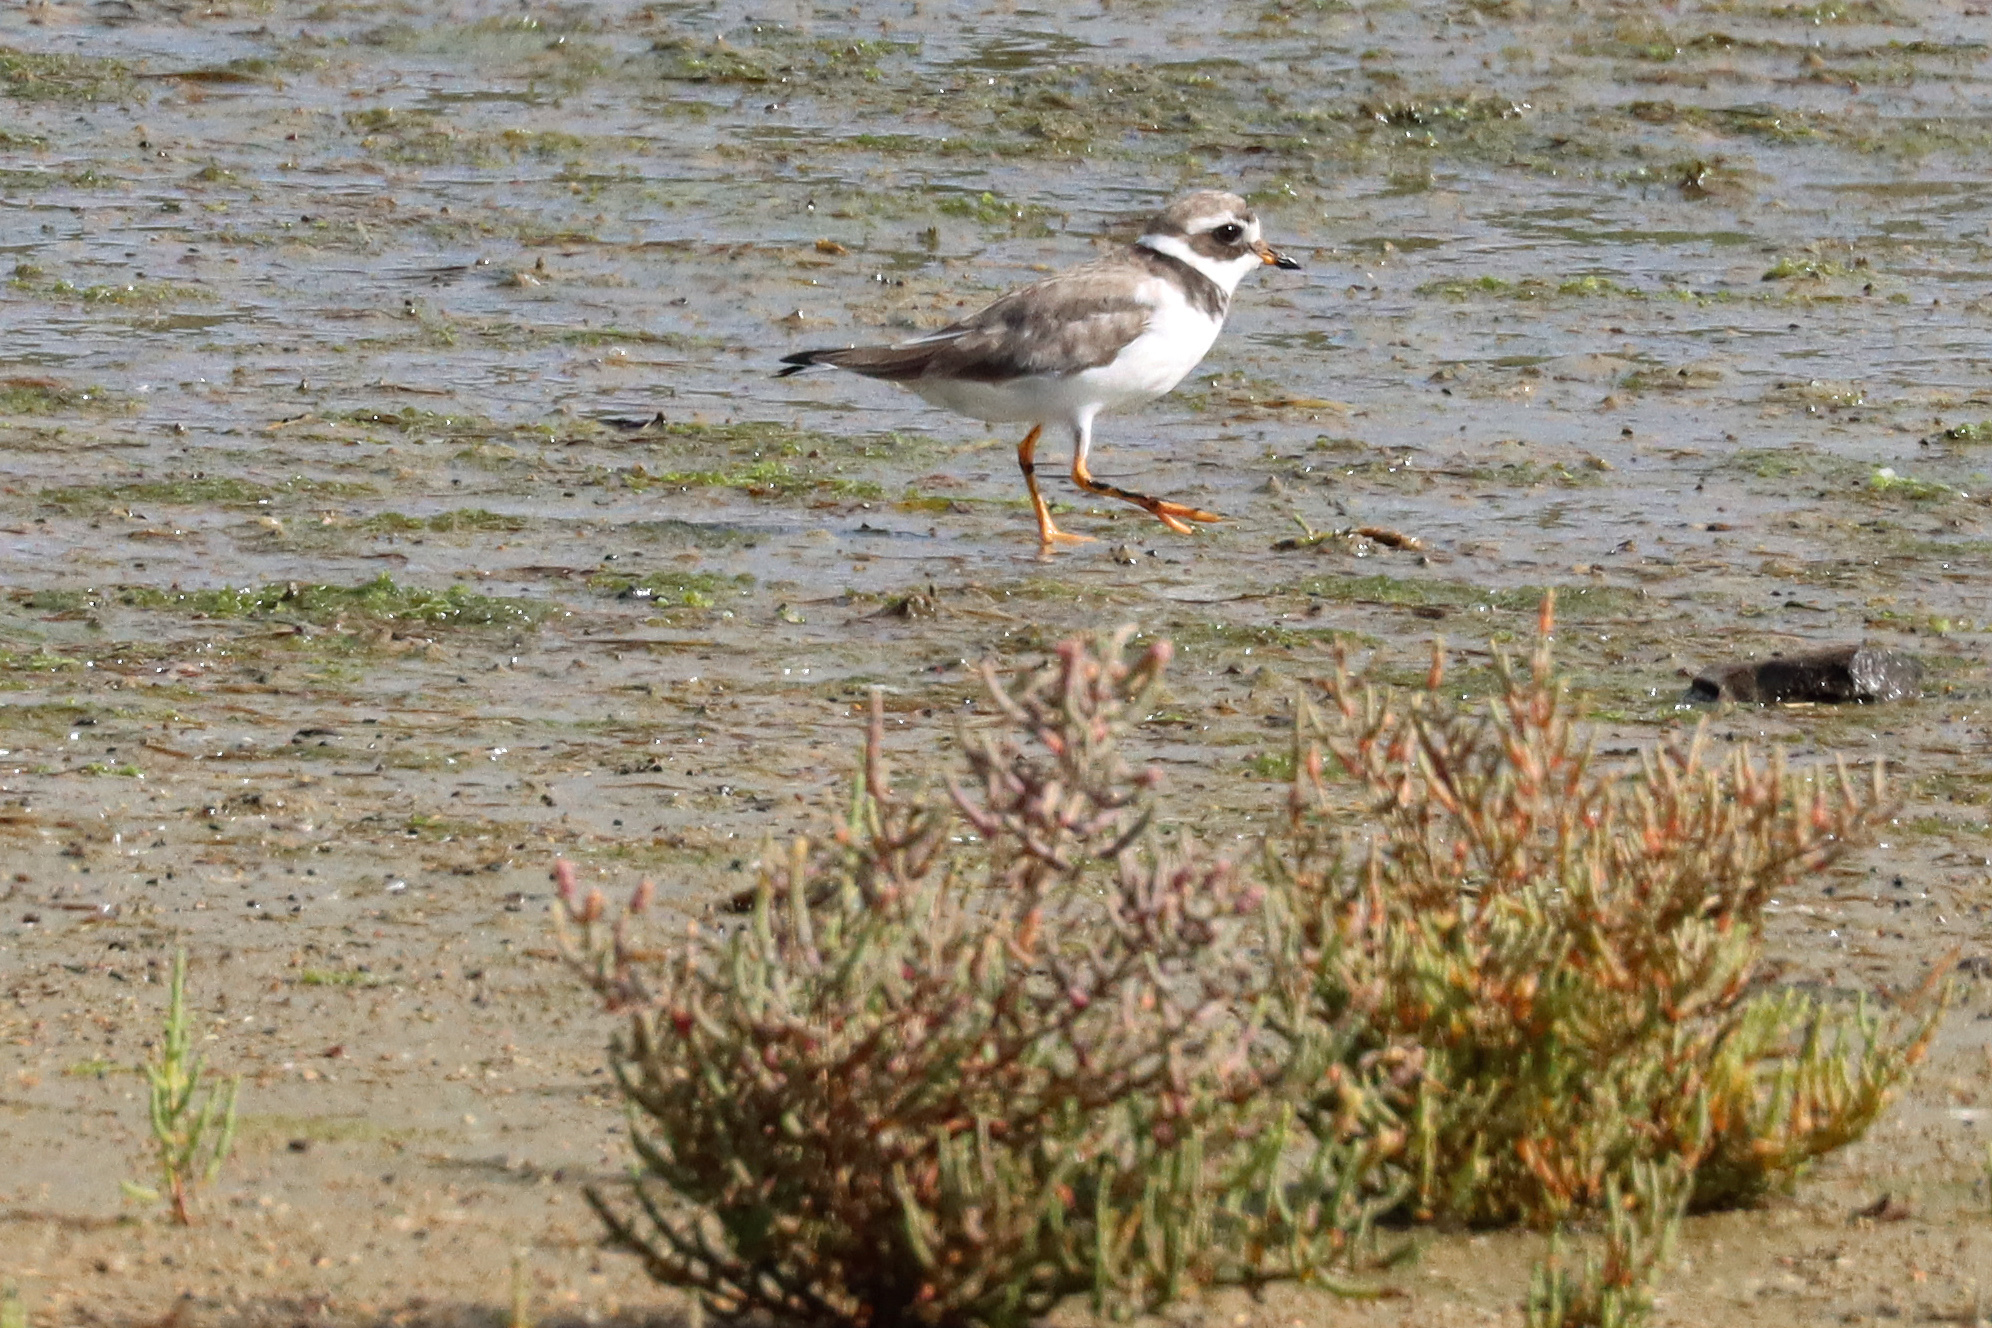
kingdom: Animalia
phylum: Chordata
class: Aves
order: Charadriiformes
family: Charadriidae
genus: Charadrius
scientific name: Charadrius hiaticula
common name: Common ringed plover
